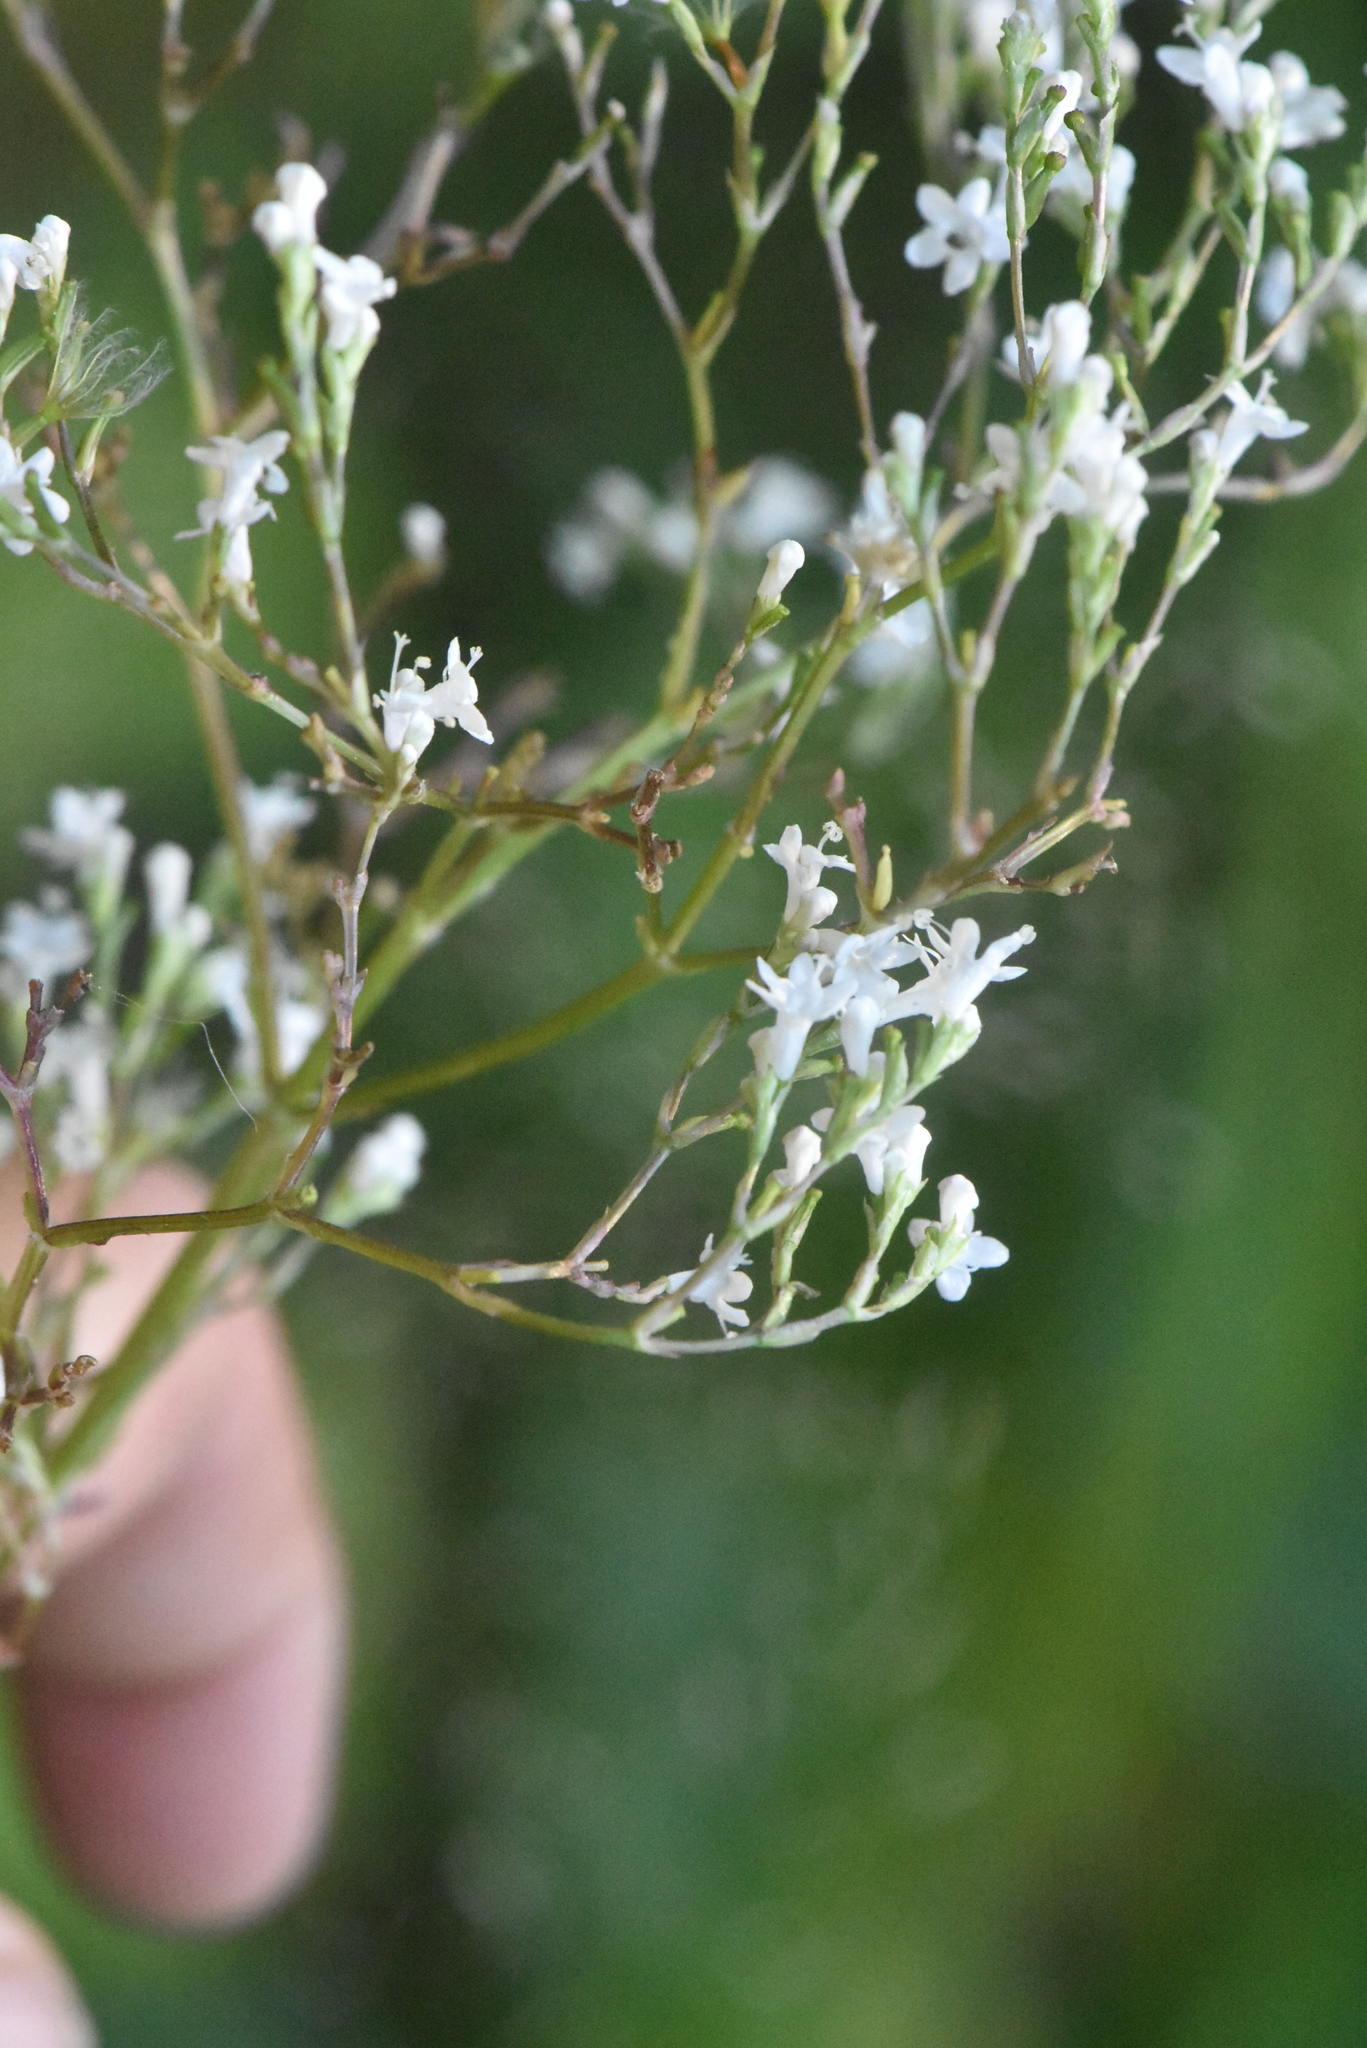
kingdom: Plantae
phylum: Tracheophyta
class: Magnoliopsida
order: Dipsacales
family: Caprifoliaceae
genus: Valeriana
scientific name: Valeriana officinalis
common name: Common valerian
